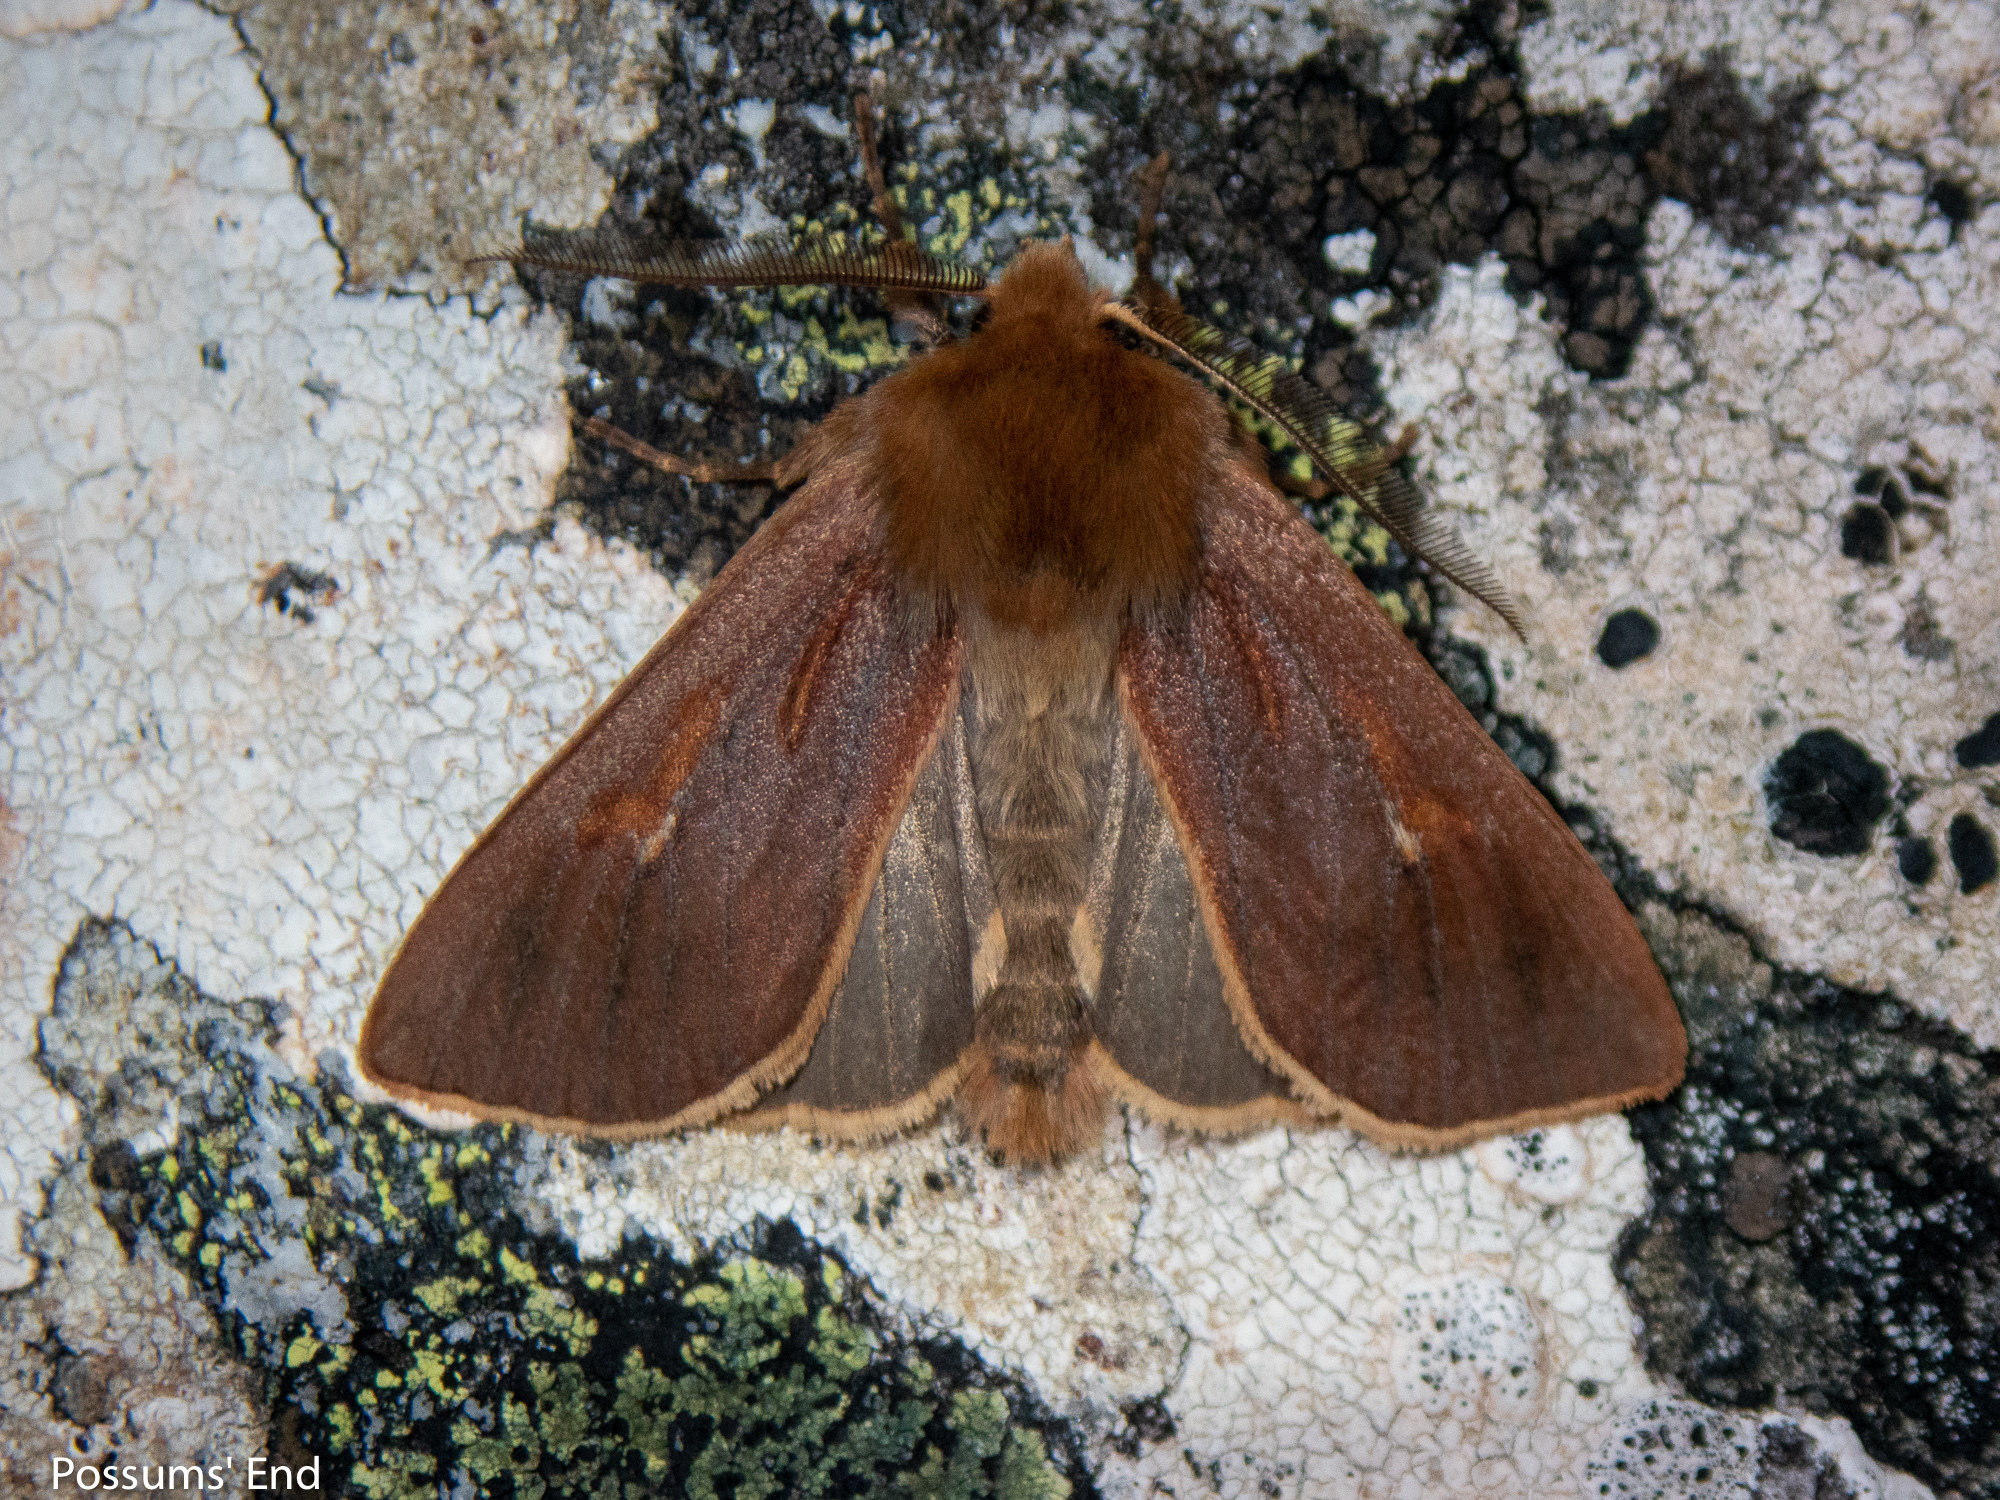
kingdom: Animalia
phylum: Arthropoda
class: Insecta
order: Lepidoptera
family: Noctuidae
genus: Ichneutica
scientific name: Ichneutica dione
